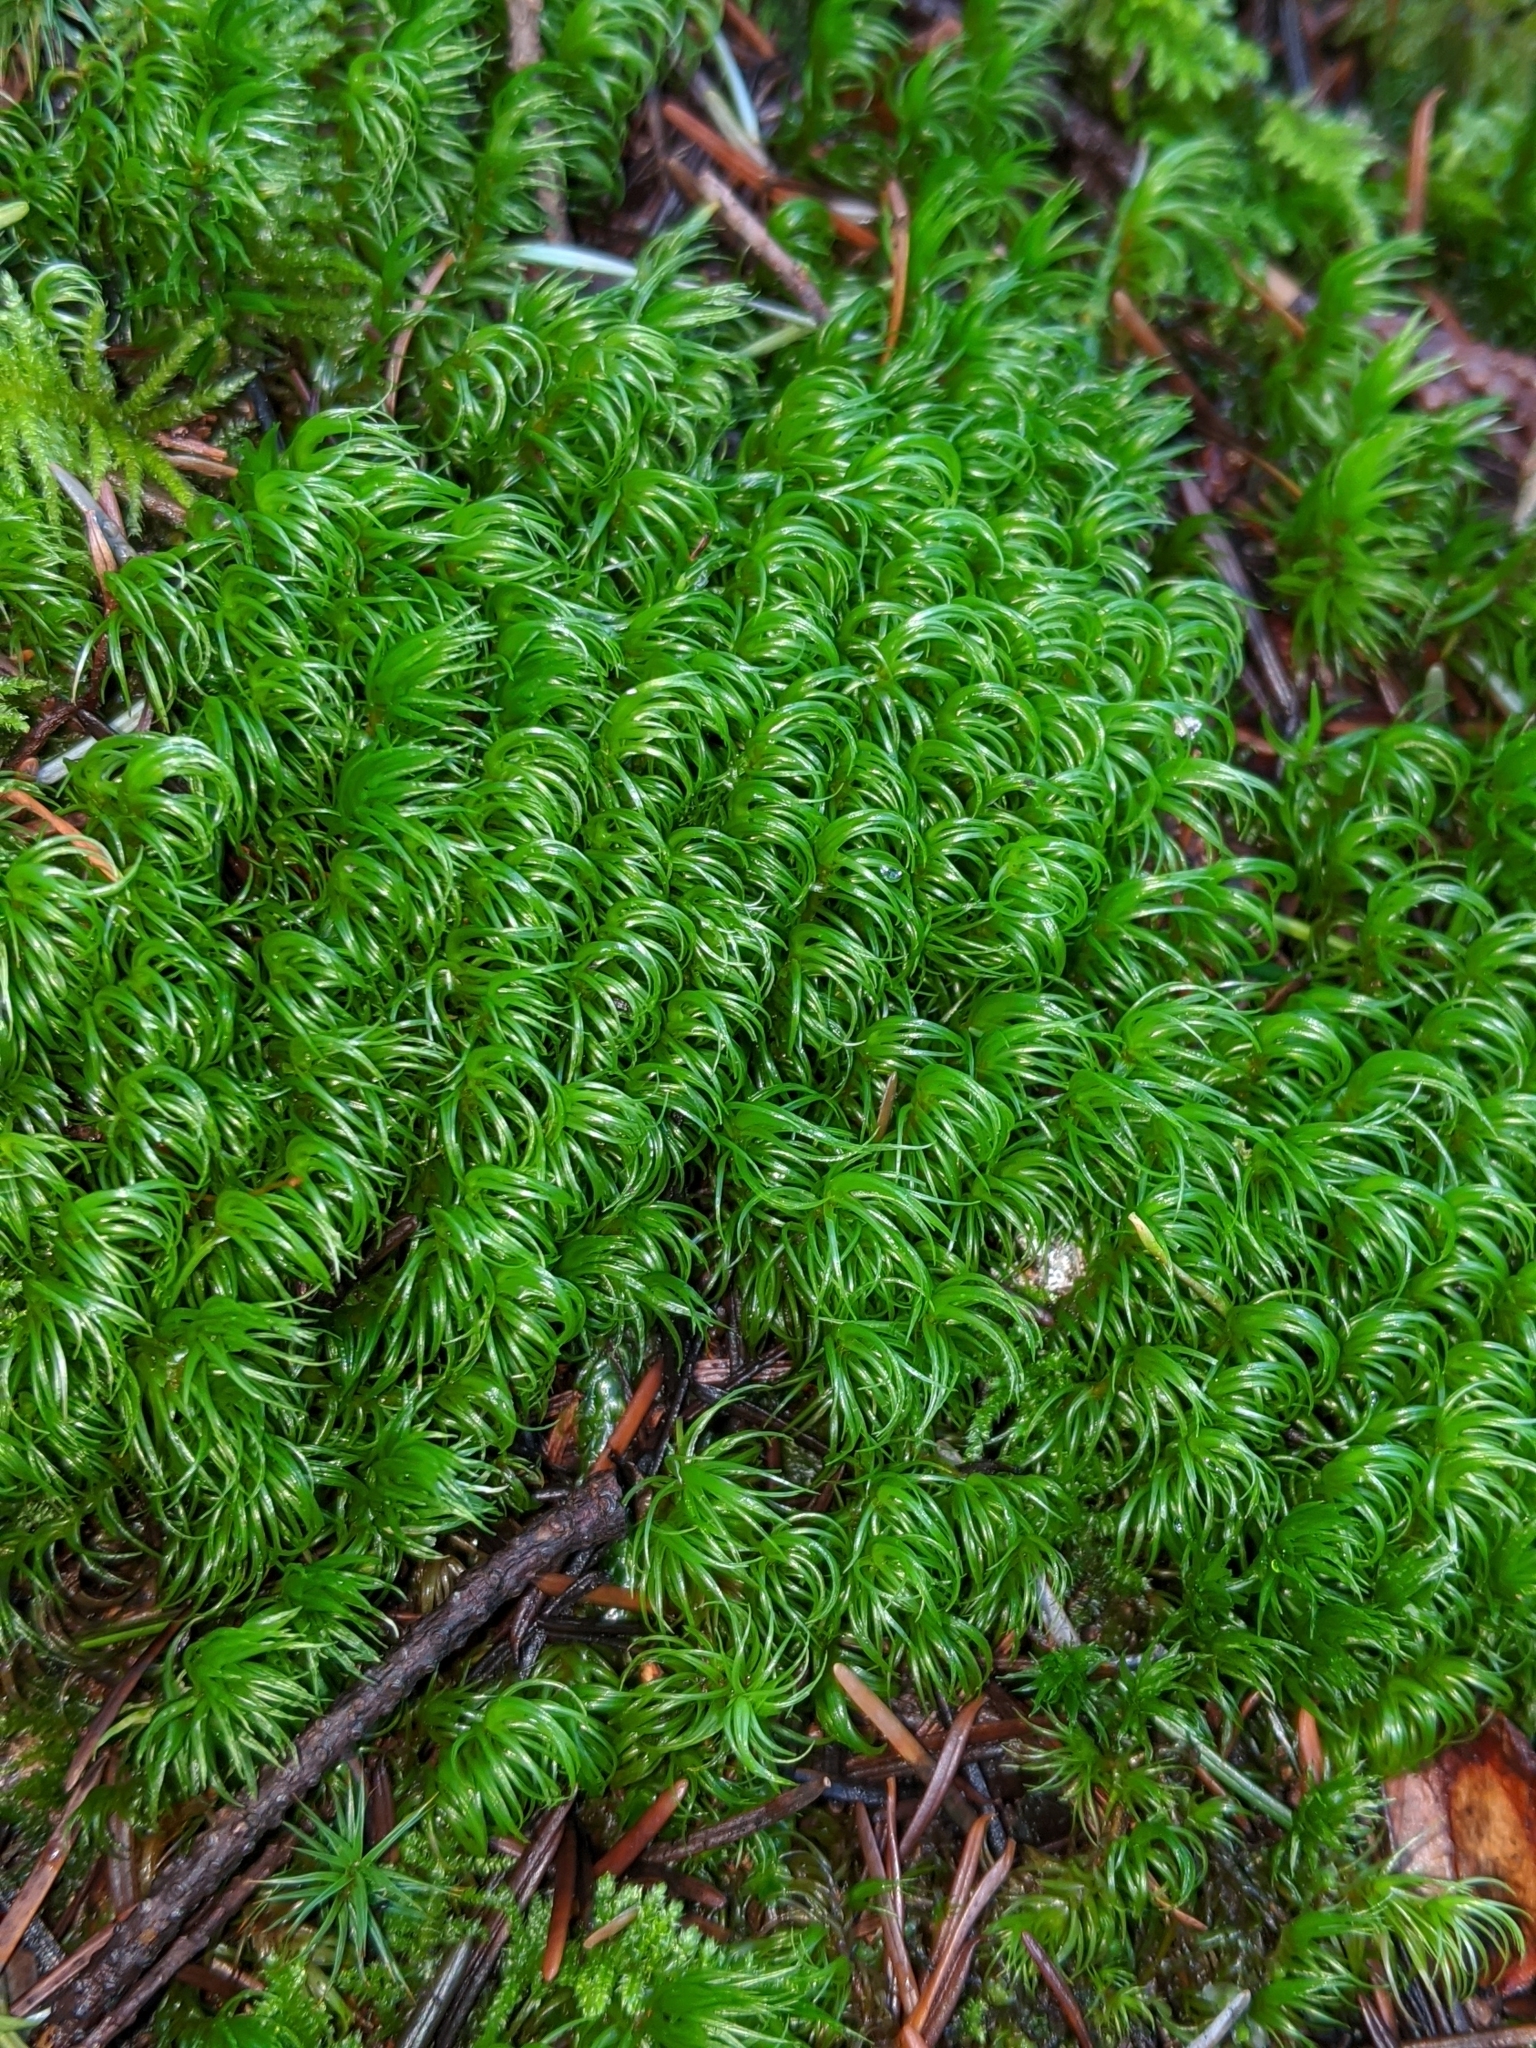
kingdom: Plantae
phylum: Bryophyta
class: Bryopsida
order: Dicranales
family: Dicranaceae
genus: Dicranum
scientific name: Dicranum scoparium
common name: Broom fork-moss
